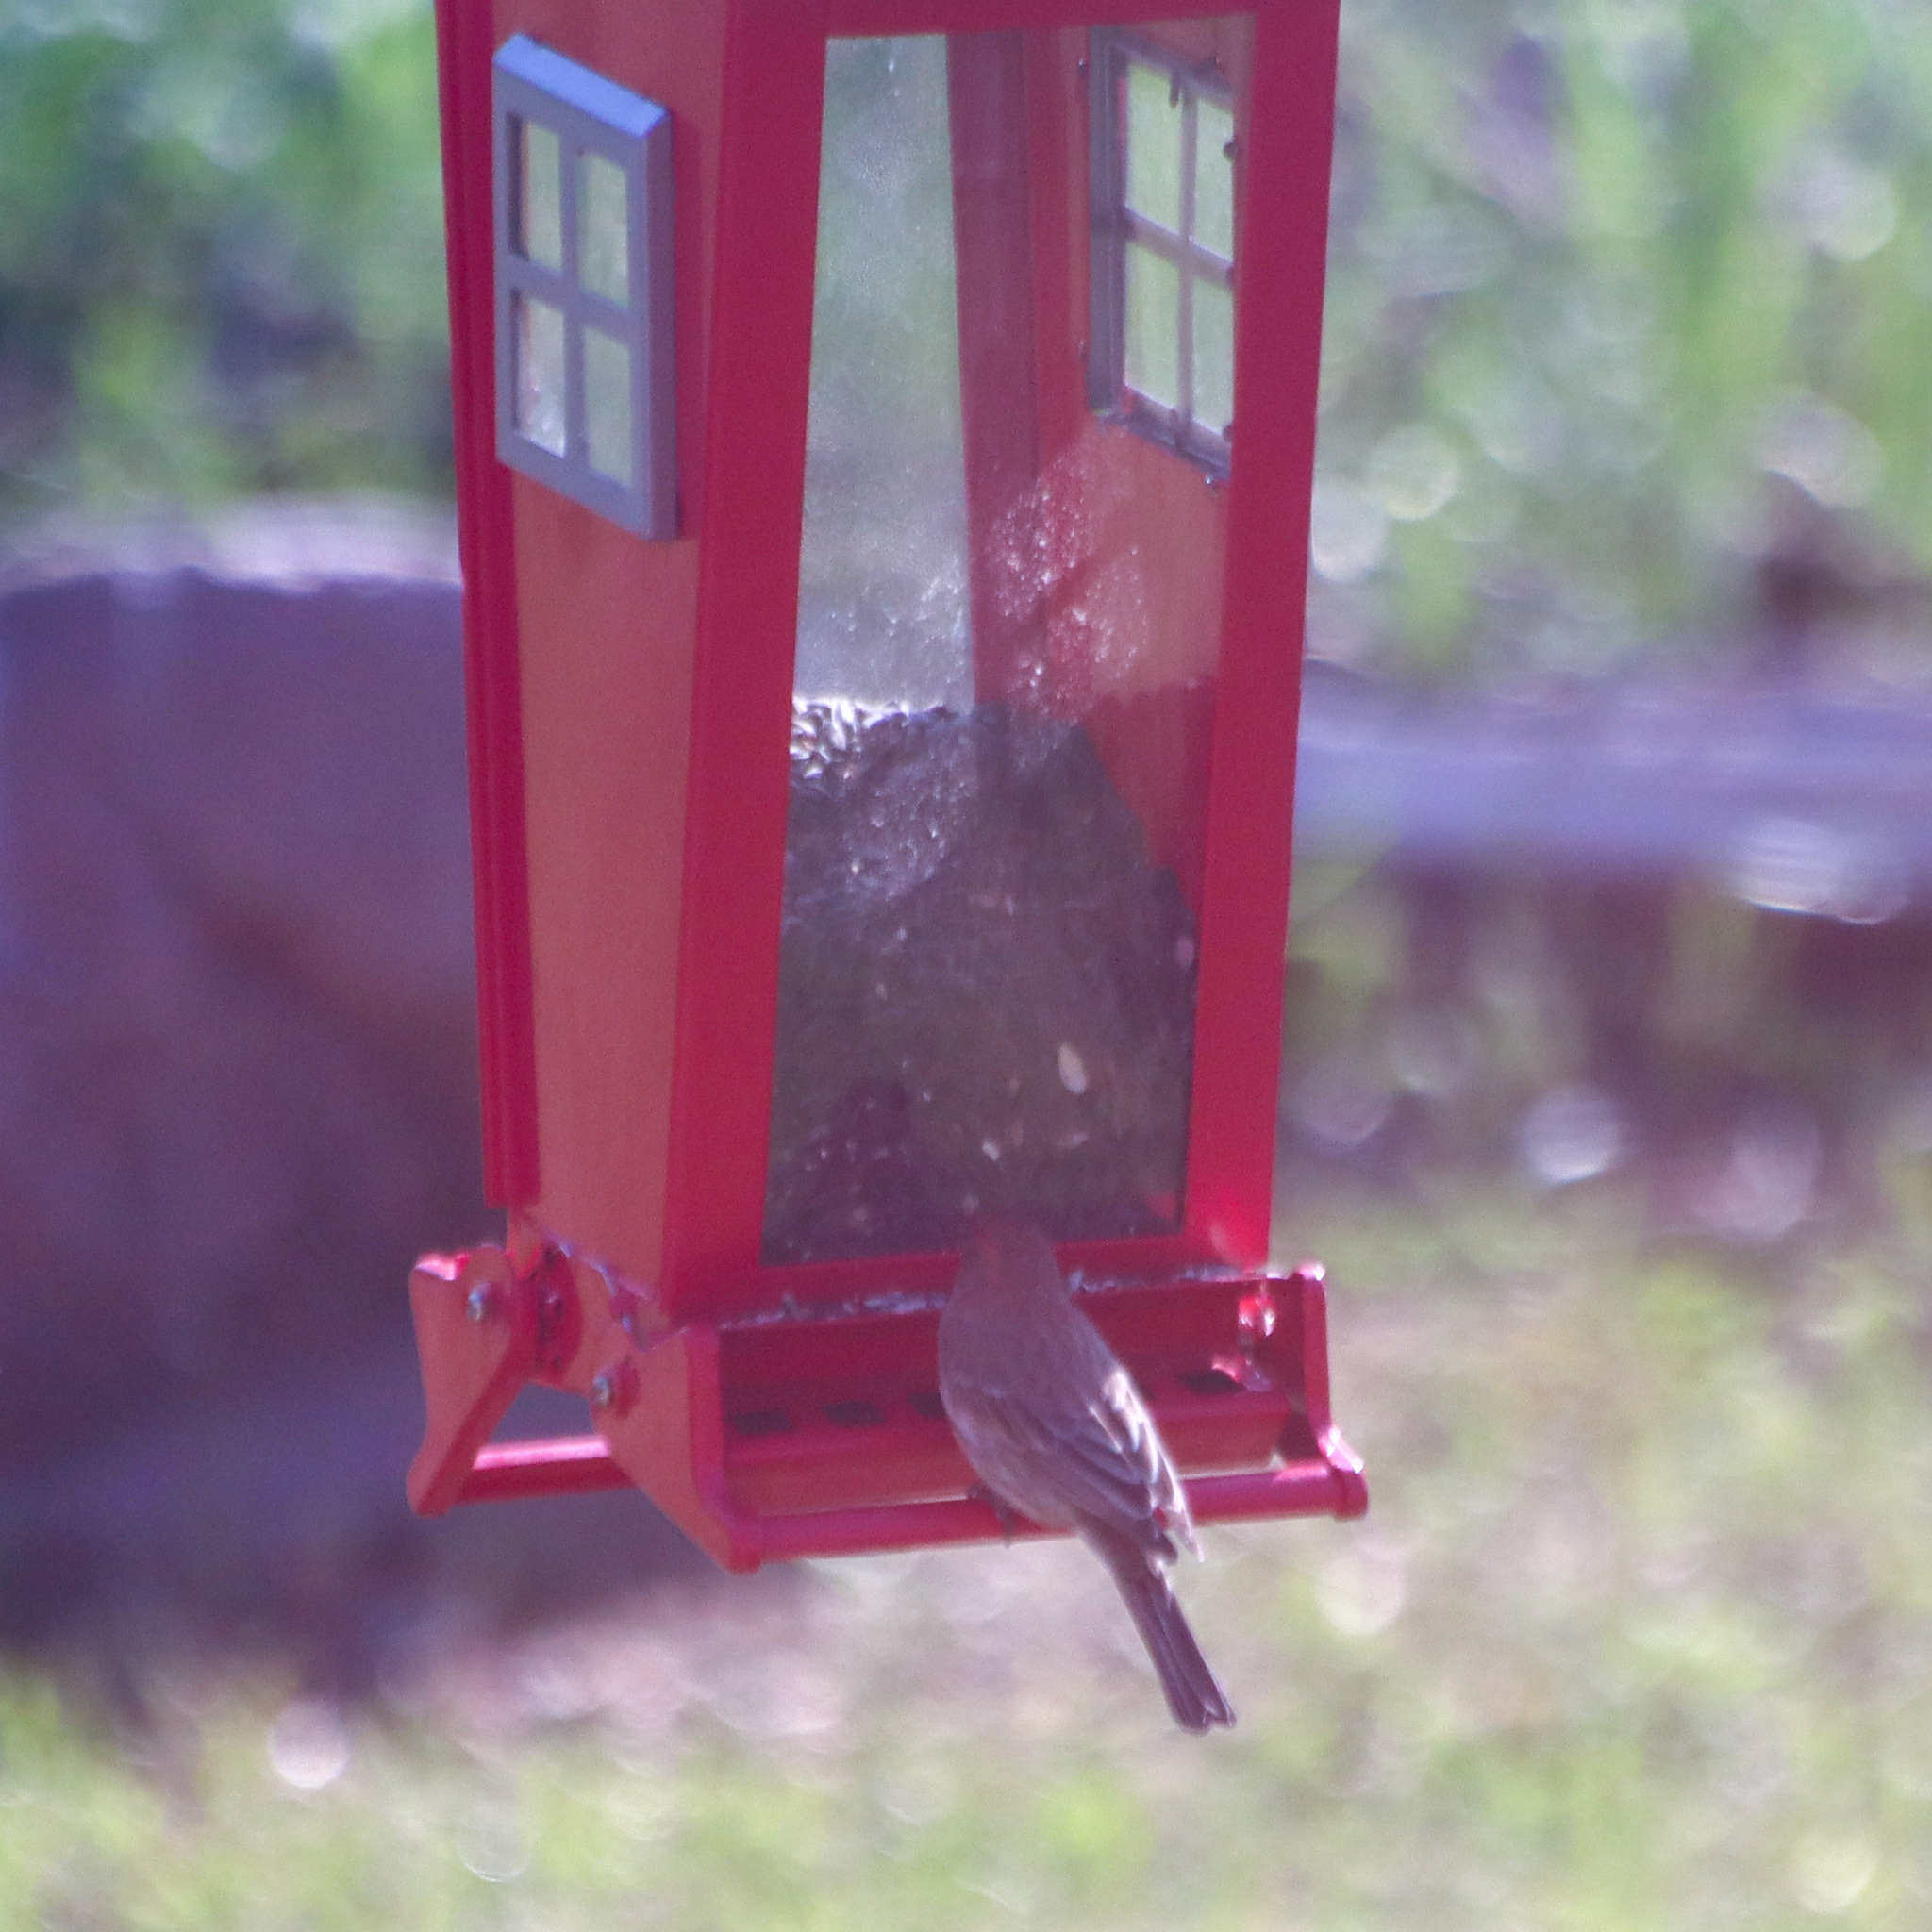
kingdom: Animalia
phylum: Chordata
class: Aves
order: Passeriformes
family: Fringillidae
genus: Haemorhous
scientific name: Haemorhous mexicanus
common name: House finch
